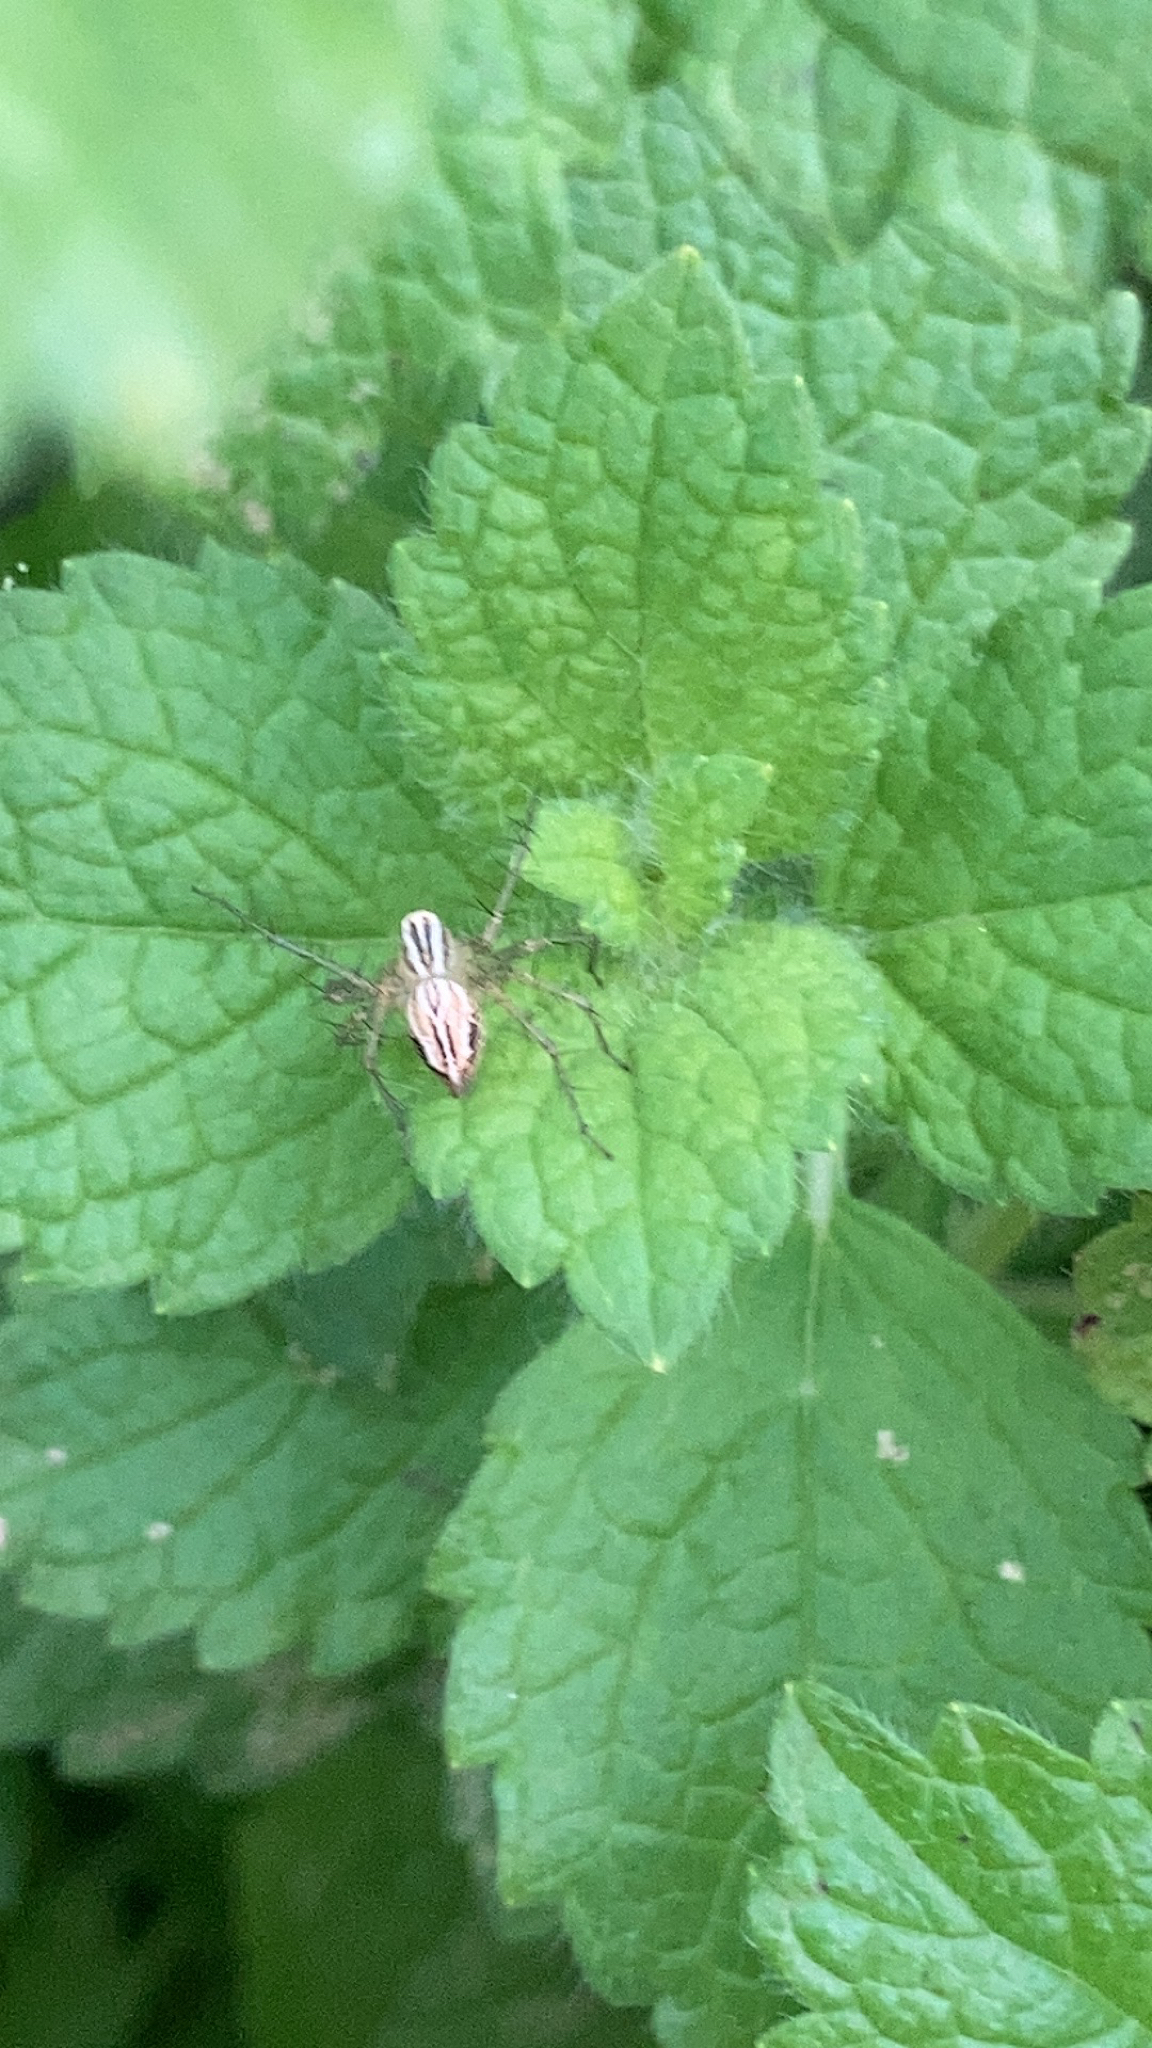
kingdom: Animalia
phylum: Arthropoda
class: Arachnida
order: Araneae
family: Oxyopidae
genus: Oxyopes
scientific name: Oxyopes salticus
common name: Lynx spiders
